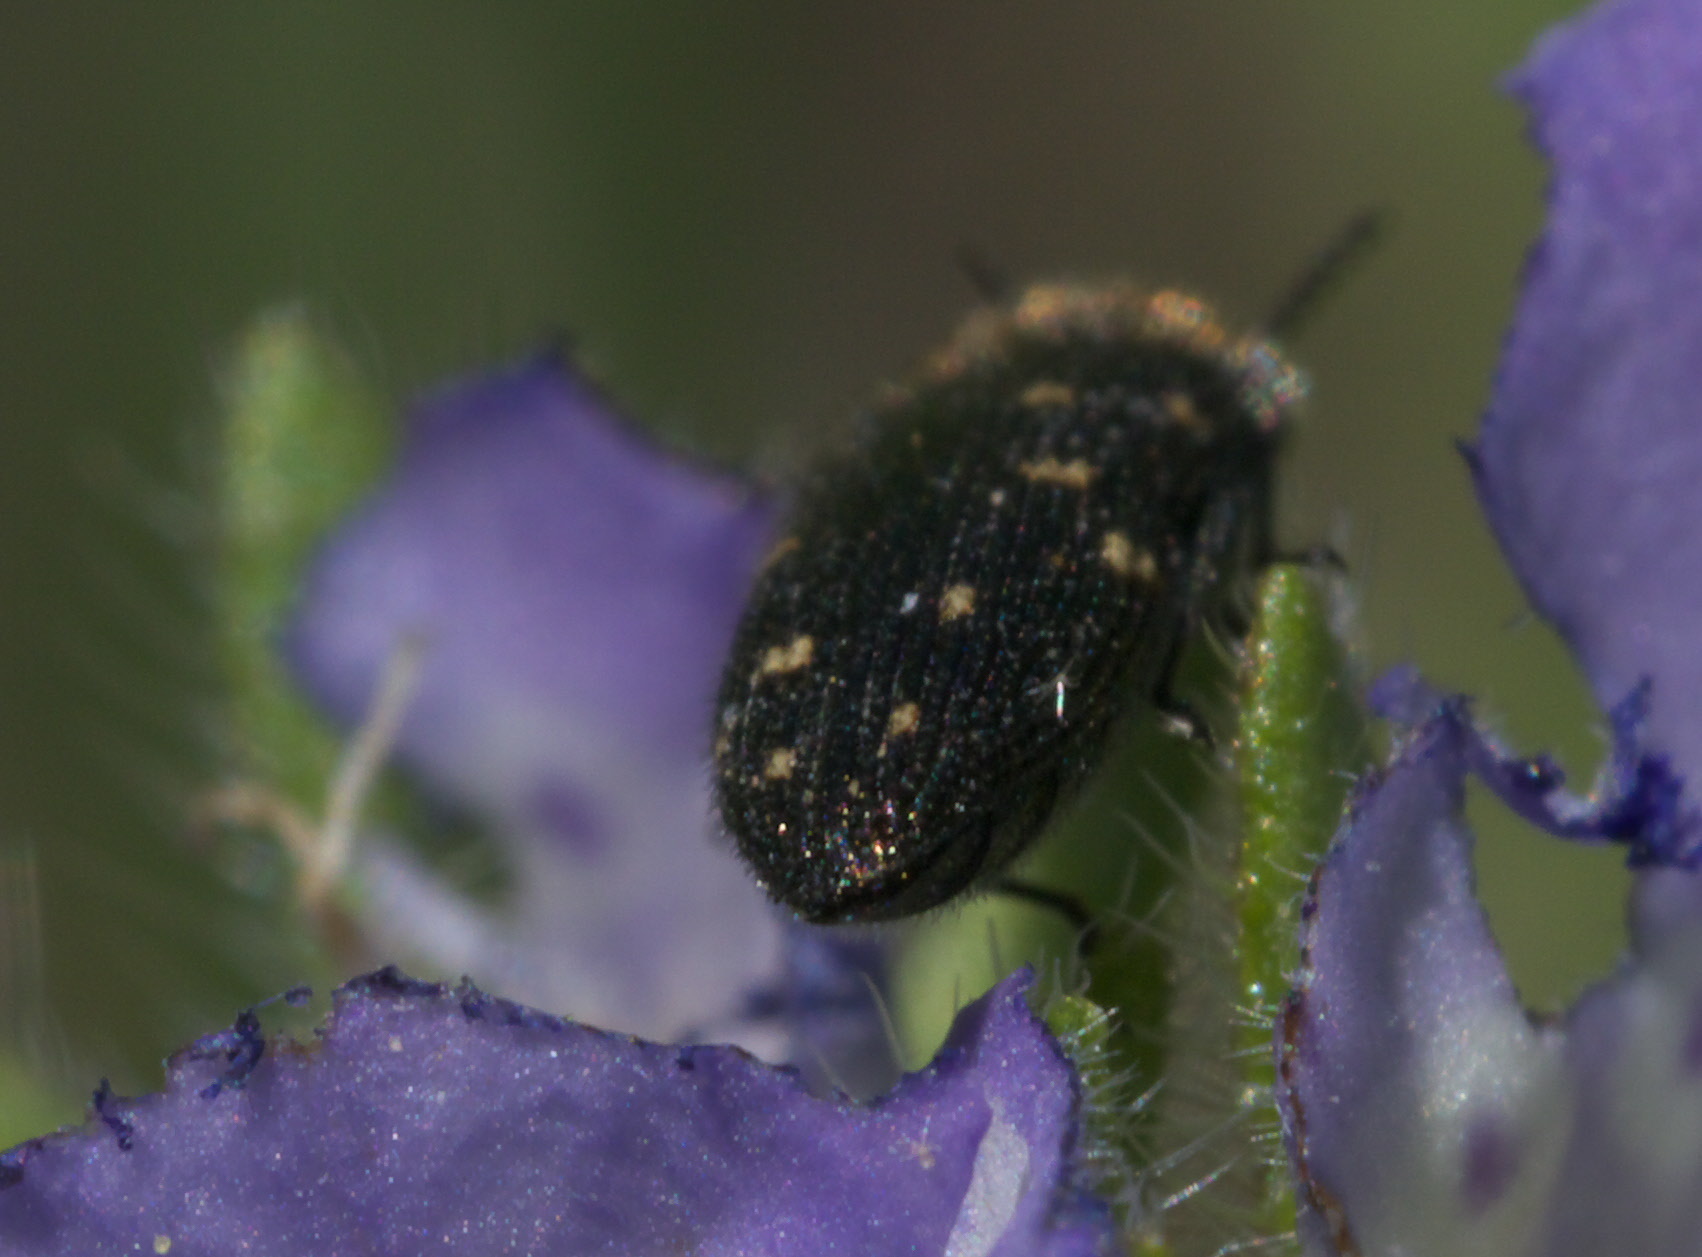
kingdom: Animalia
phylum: Arthropoda
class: Insecta
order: Coleoptera
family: Buprestidae
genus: Acmaeodera
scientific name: Acmaeodera tubulus
